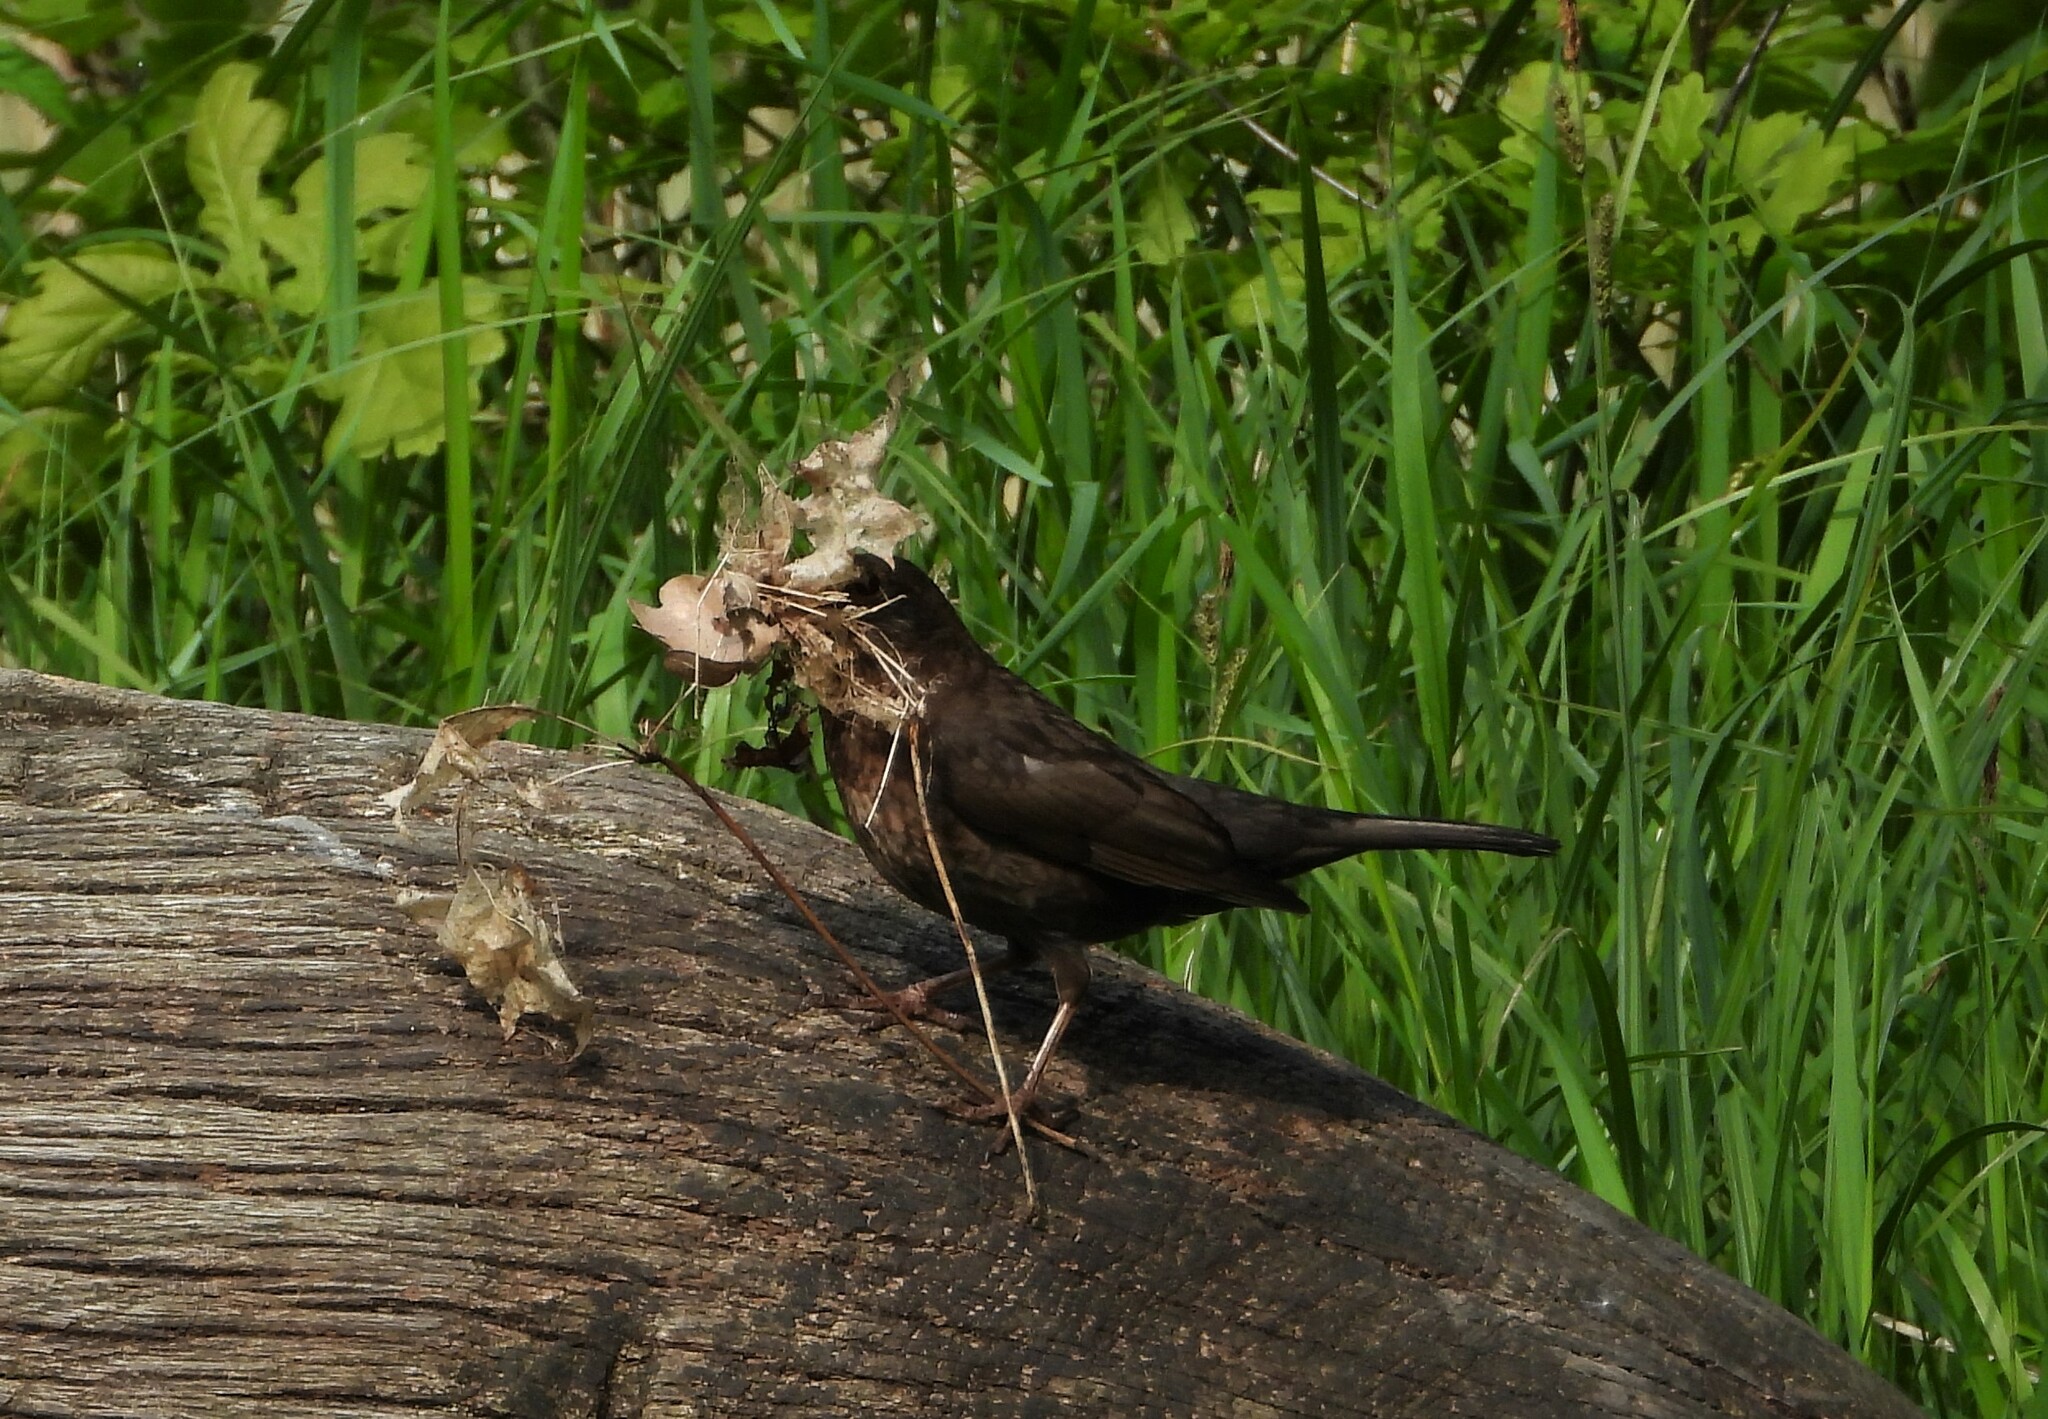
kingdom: Animalia
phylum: Chordata
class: Aves
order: Passeriformes
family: Turdidae
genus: Turdus
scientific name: Turdus merula
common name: Common blackbird
